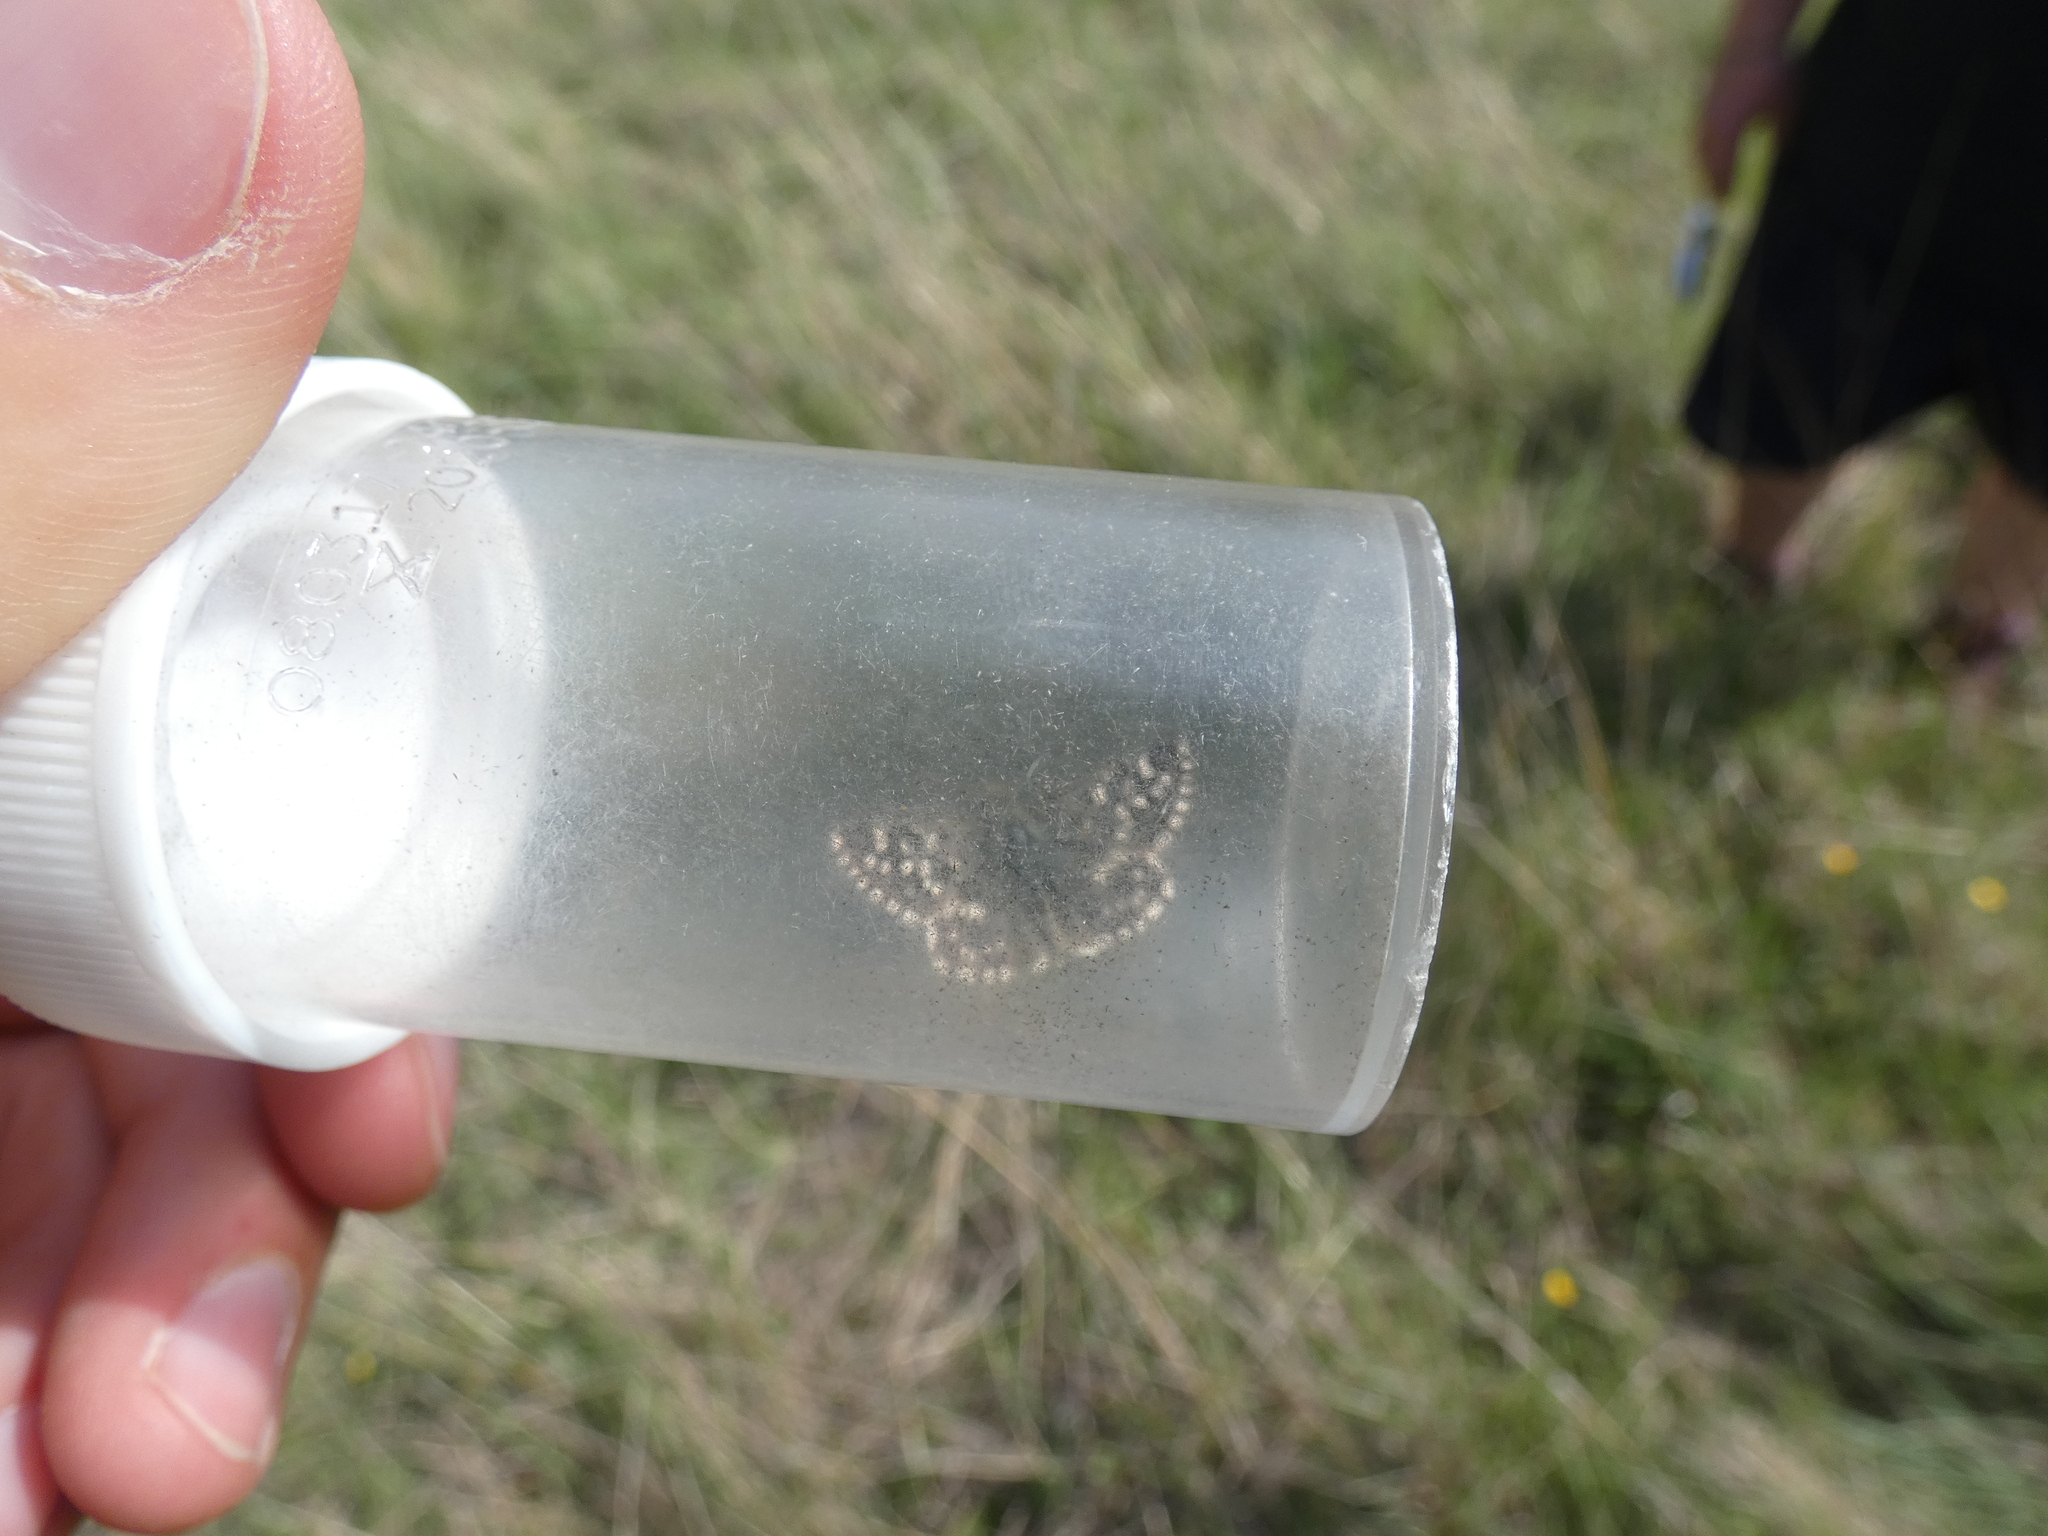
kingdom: Animalia
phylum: Arthropoda
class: Insecta
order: Lepidoptera
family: Hesperiidae
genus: Pyrgus
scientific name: Pyrgus malvoides
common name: Southern grizzled skipper
